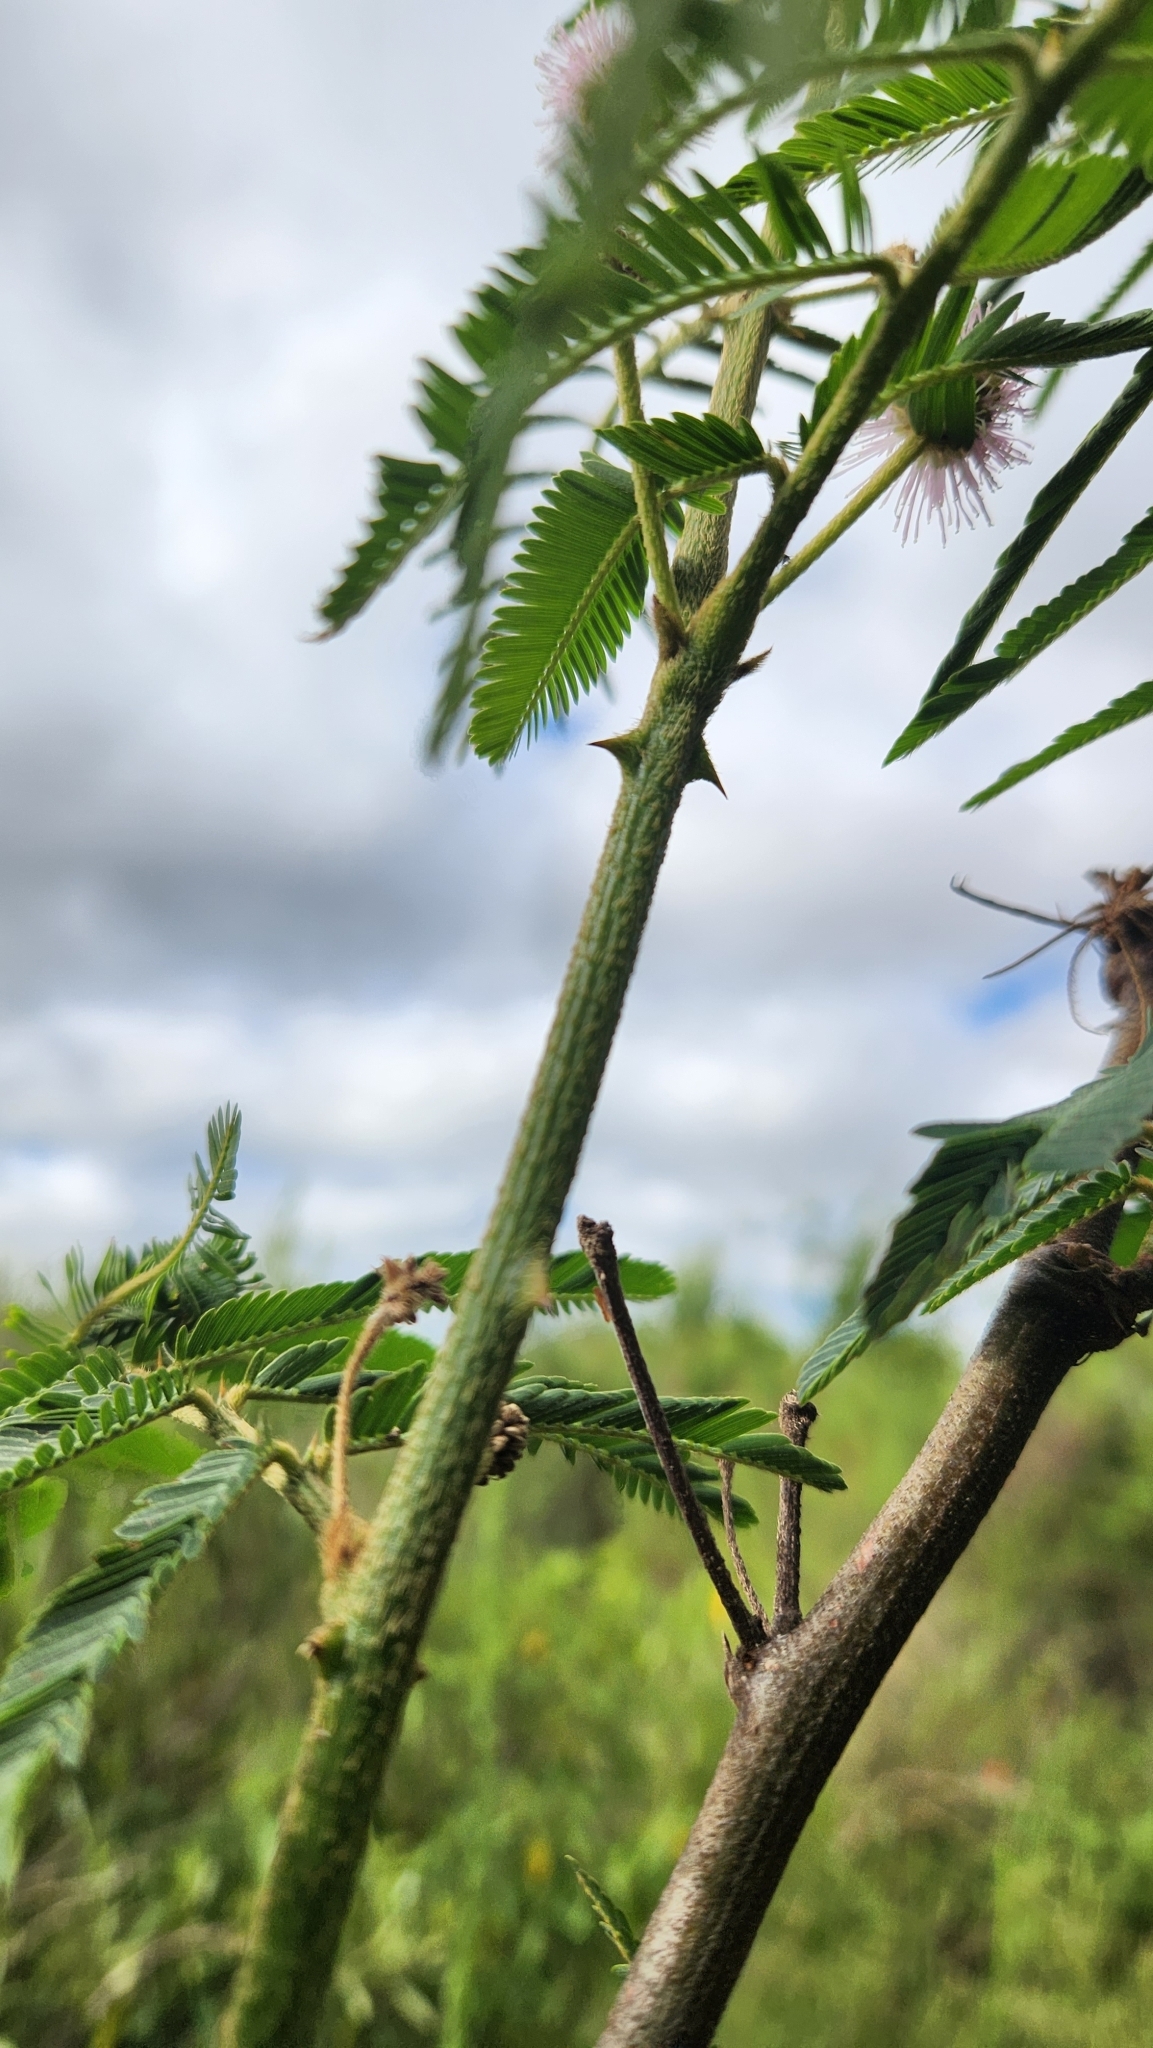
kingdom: Plantae
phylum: Tracheophyta
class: Magnoliopsida
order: Fabales
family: Fabaceae
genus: Mimosa
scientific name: Mimosa pigra
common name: Black mimosa
